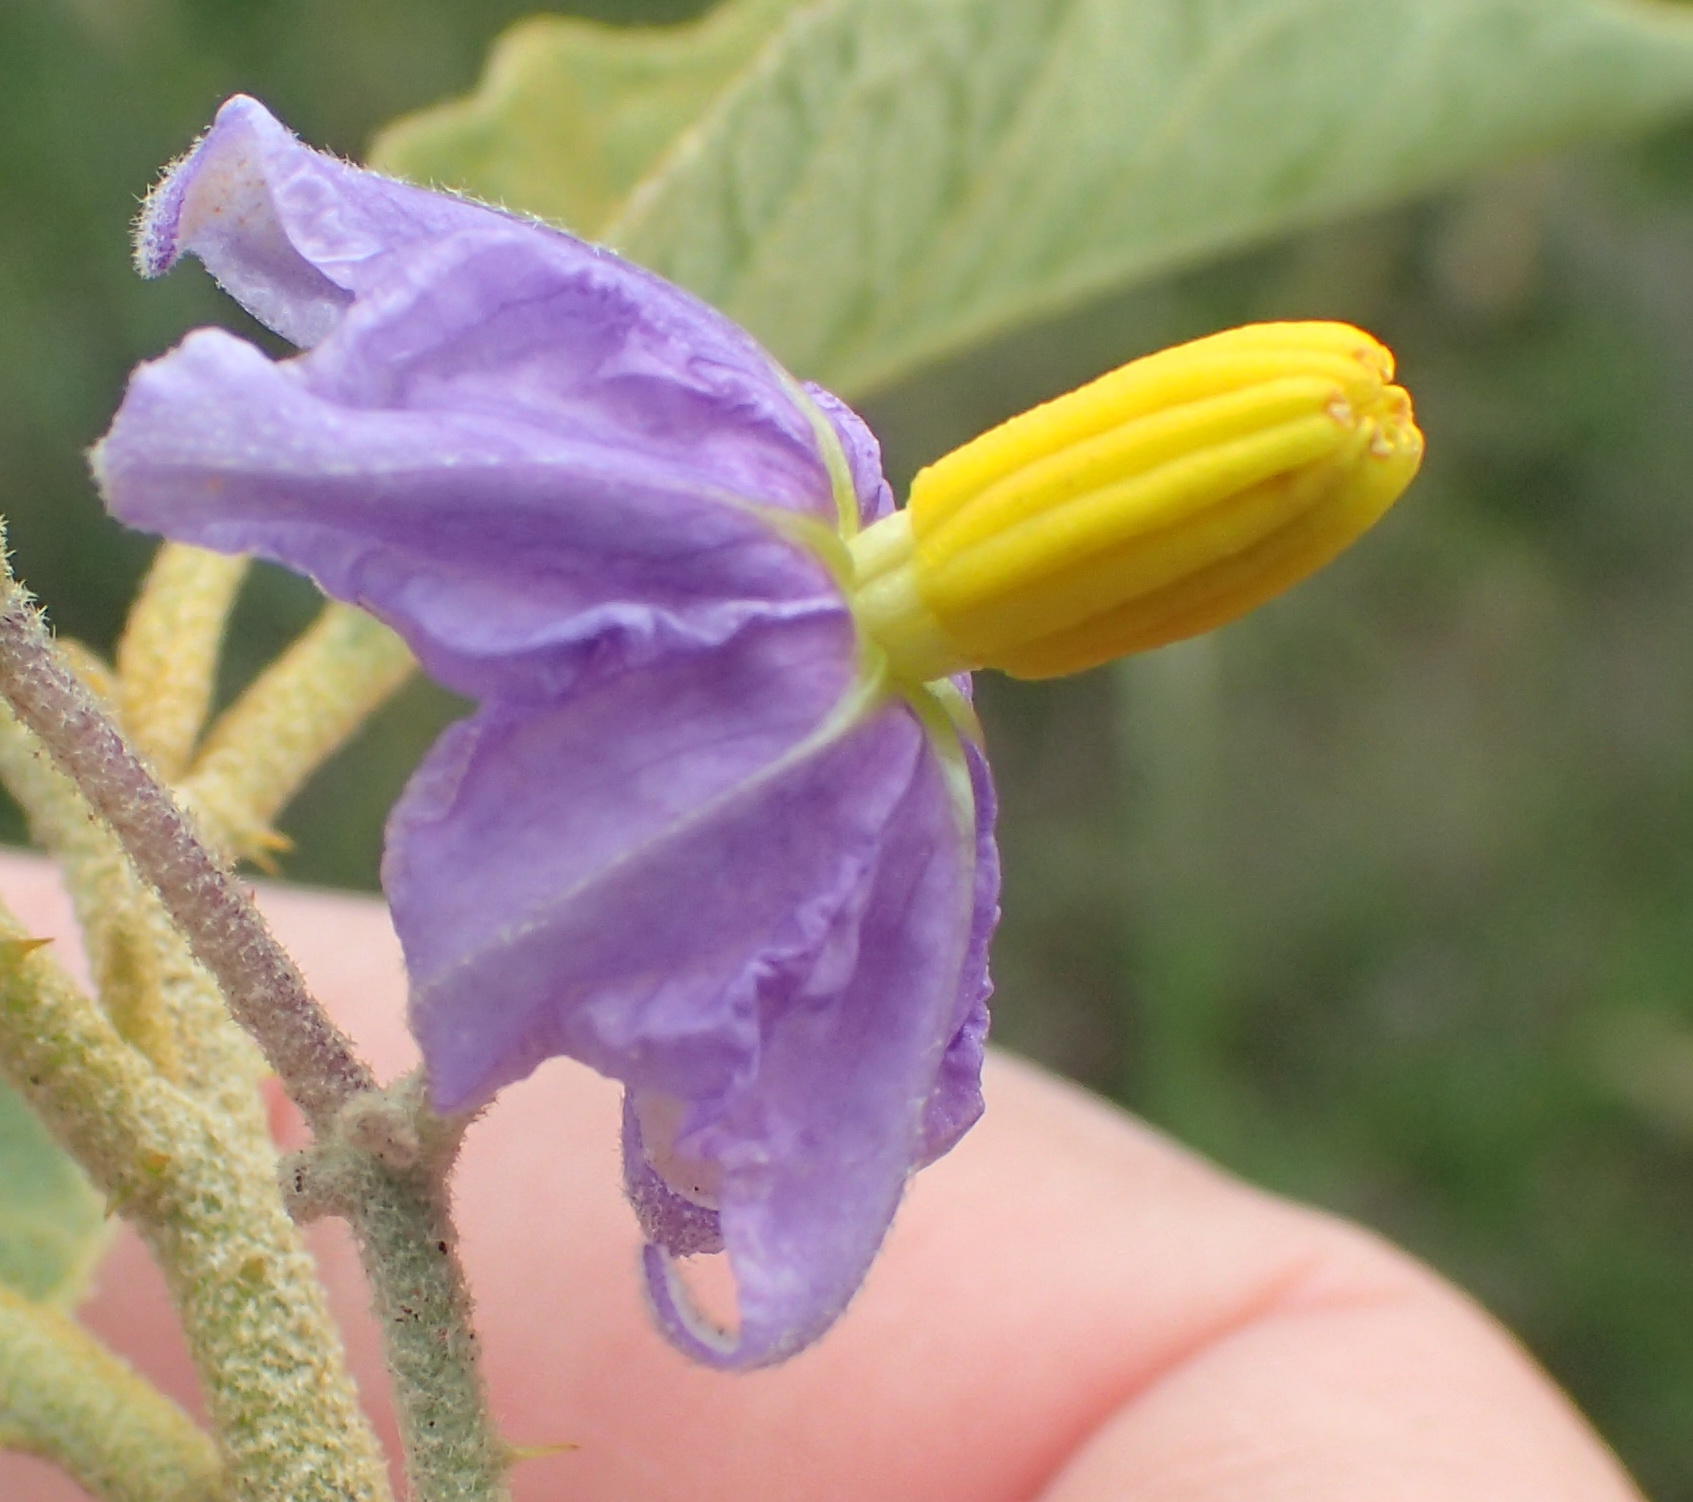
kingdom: Plantae
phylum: Tracheophyta
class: Magnoliopsida
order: Solanales
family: Solanaceae
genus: Solanum
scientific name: Solanum campylacanthum
